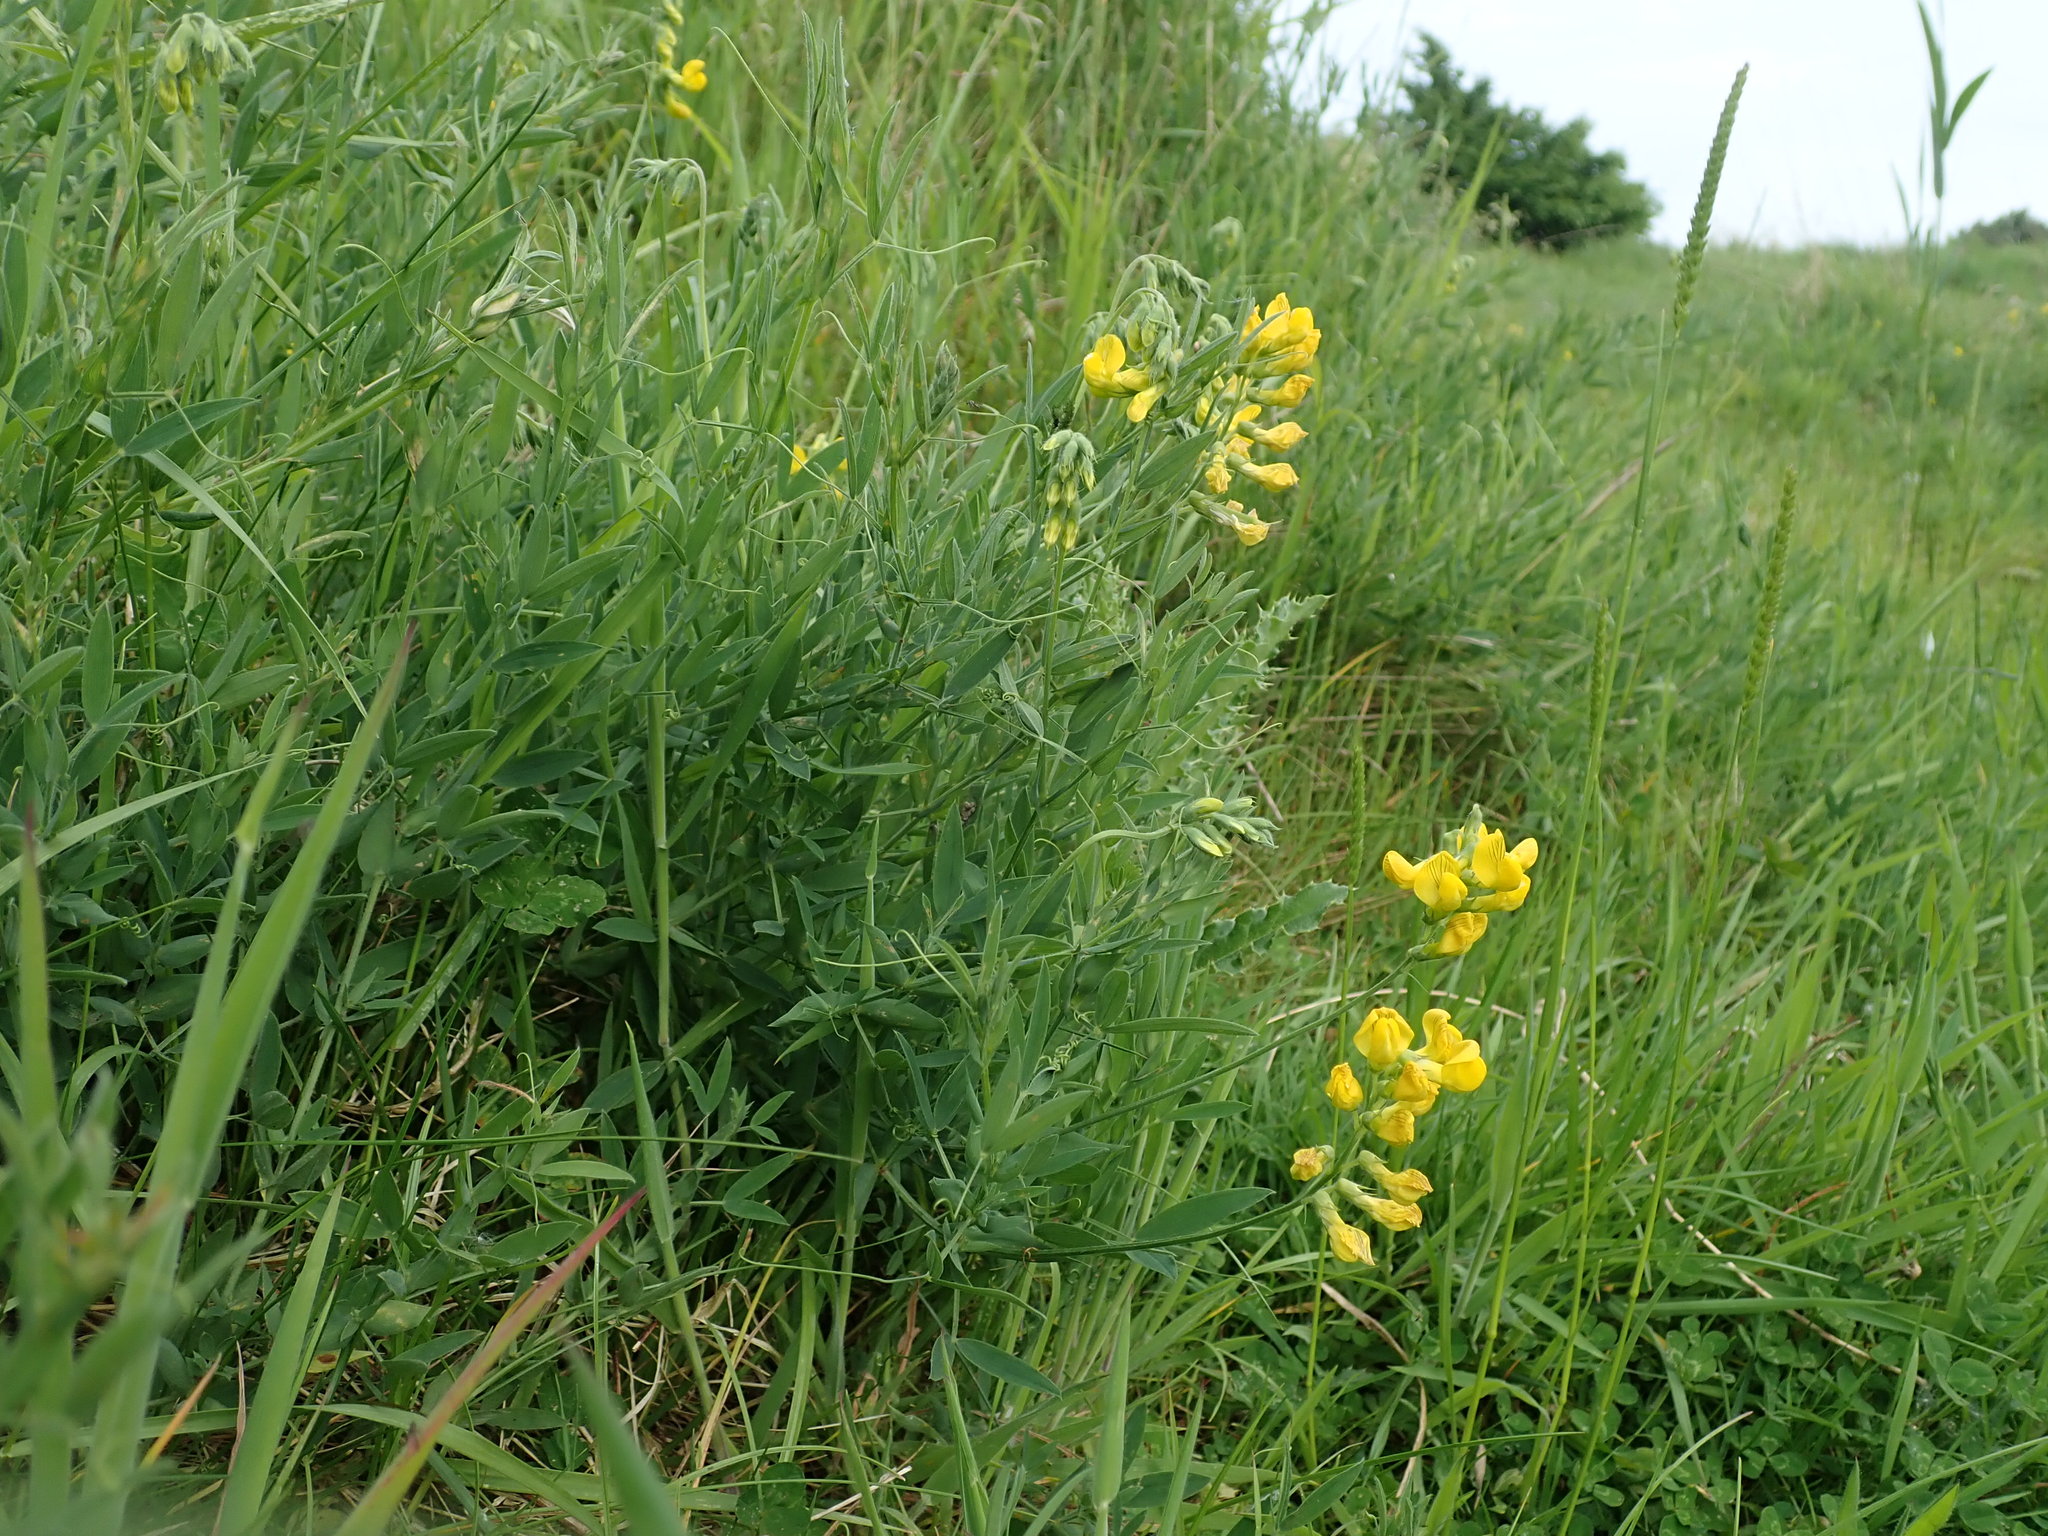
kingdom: Plantae
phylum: Tracheophyta
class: Magnoliopsida
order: Fabales
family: Fabaceae
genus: Lathyrus
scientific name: Lathyrus pratensis
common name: Meadow vetchling
